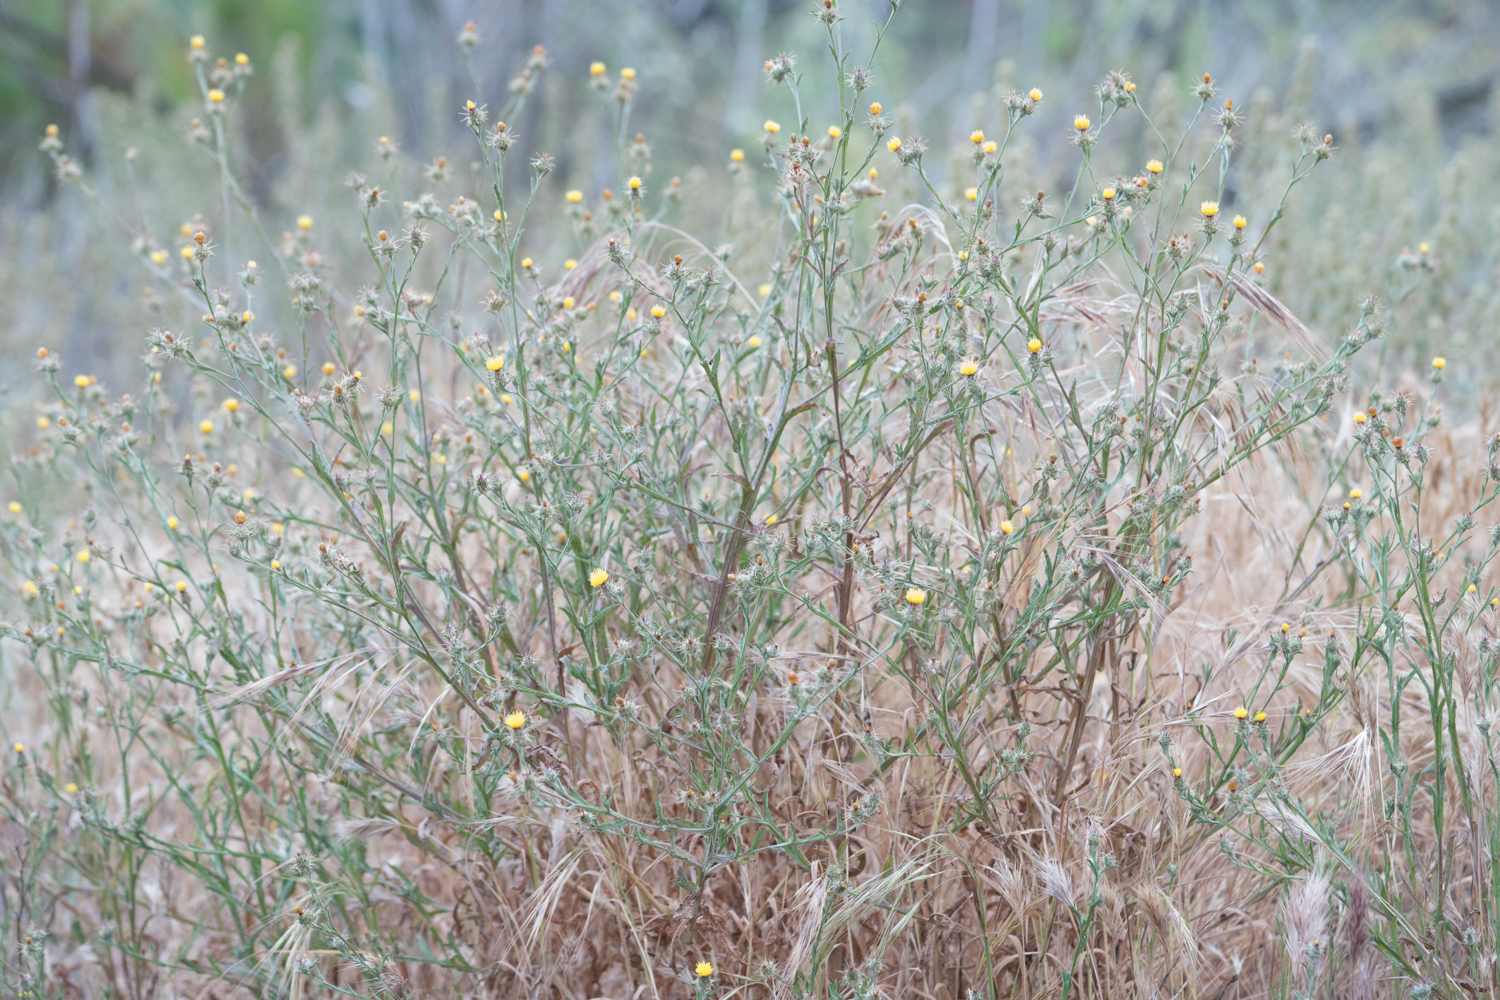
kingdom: Plantae
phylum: Tracheophyta
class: Magnoliopsida
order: Asterales
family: Asteraceae
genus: Centaurea
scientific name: Centaurea melitensis
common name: Maltese star-thistle
